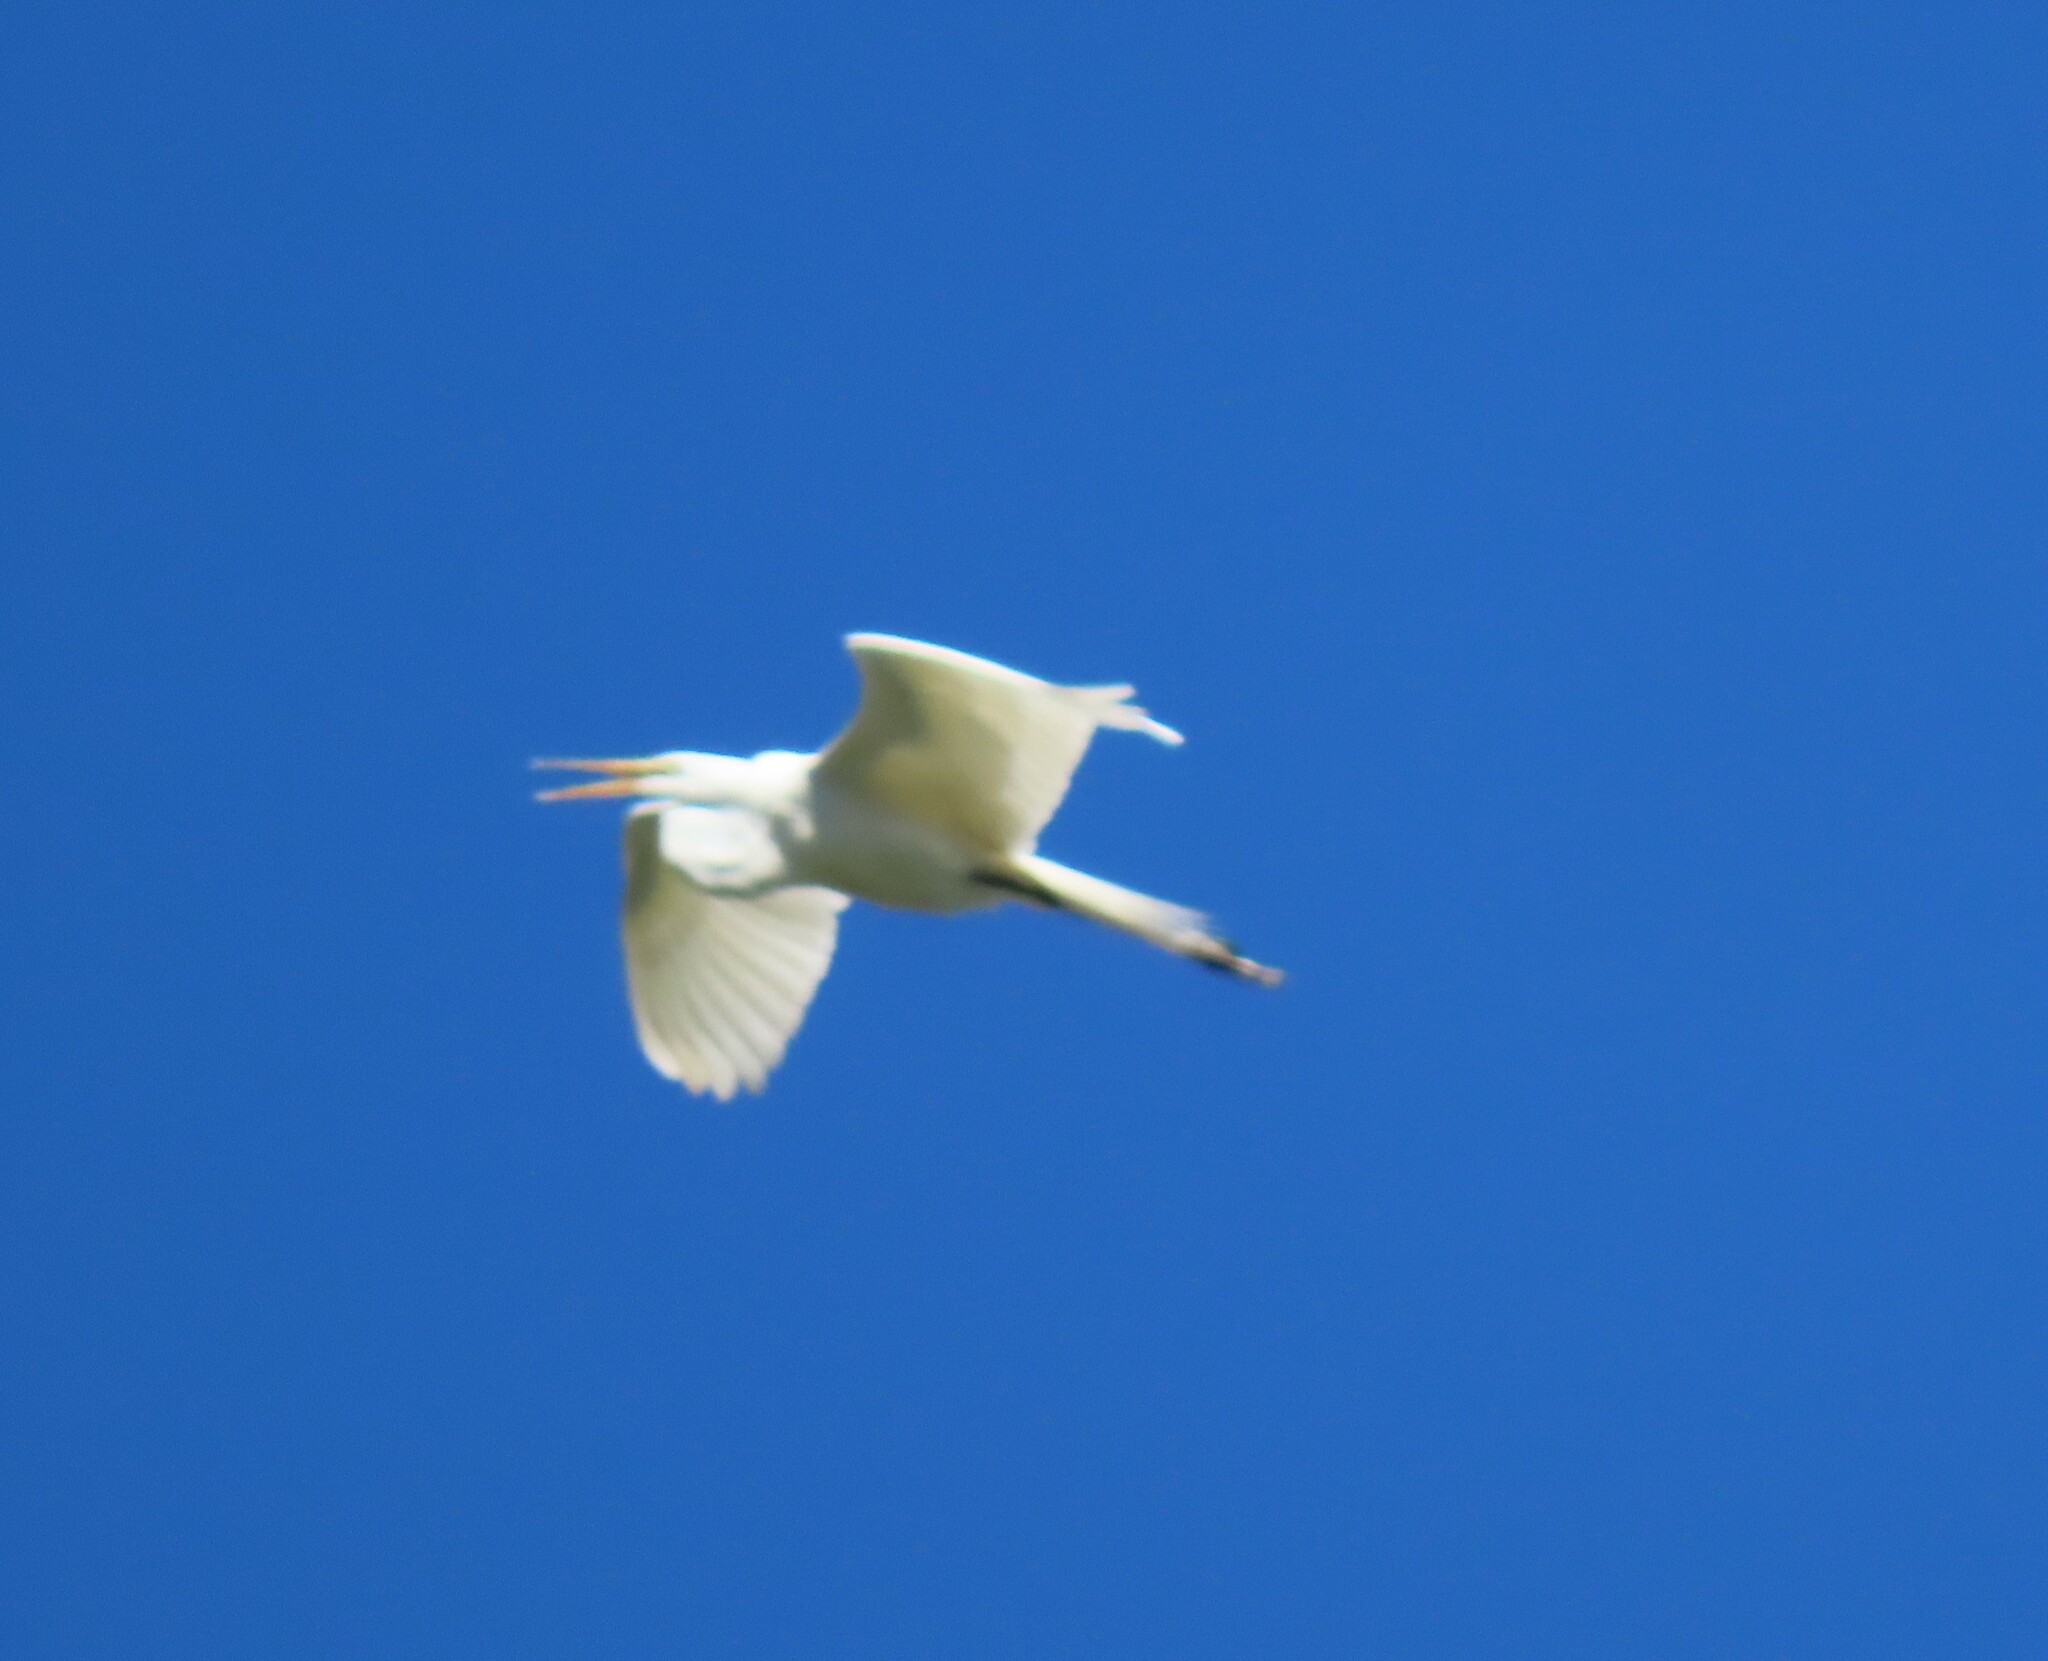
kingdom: Animalia
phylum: Chordata
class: Aves
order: Pelecaniformes
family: Ardeidae
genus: Ardea
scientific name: Ardea alba
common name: Great egret
